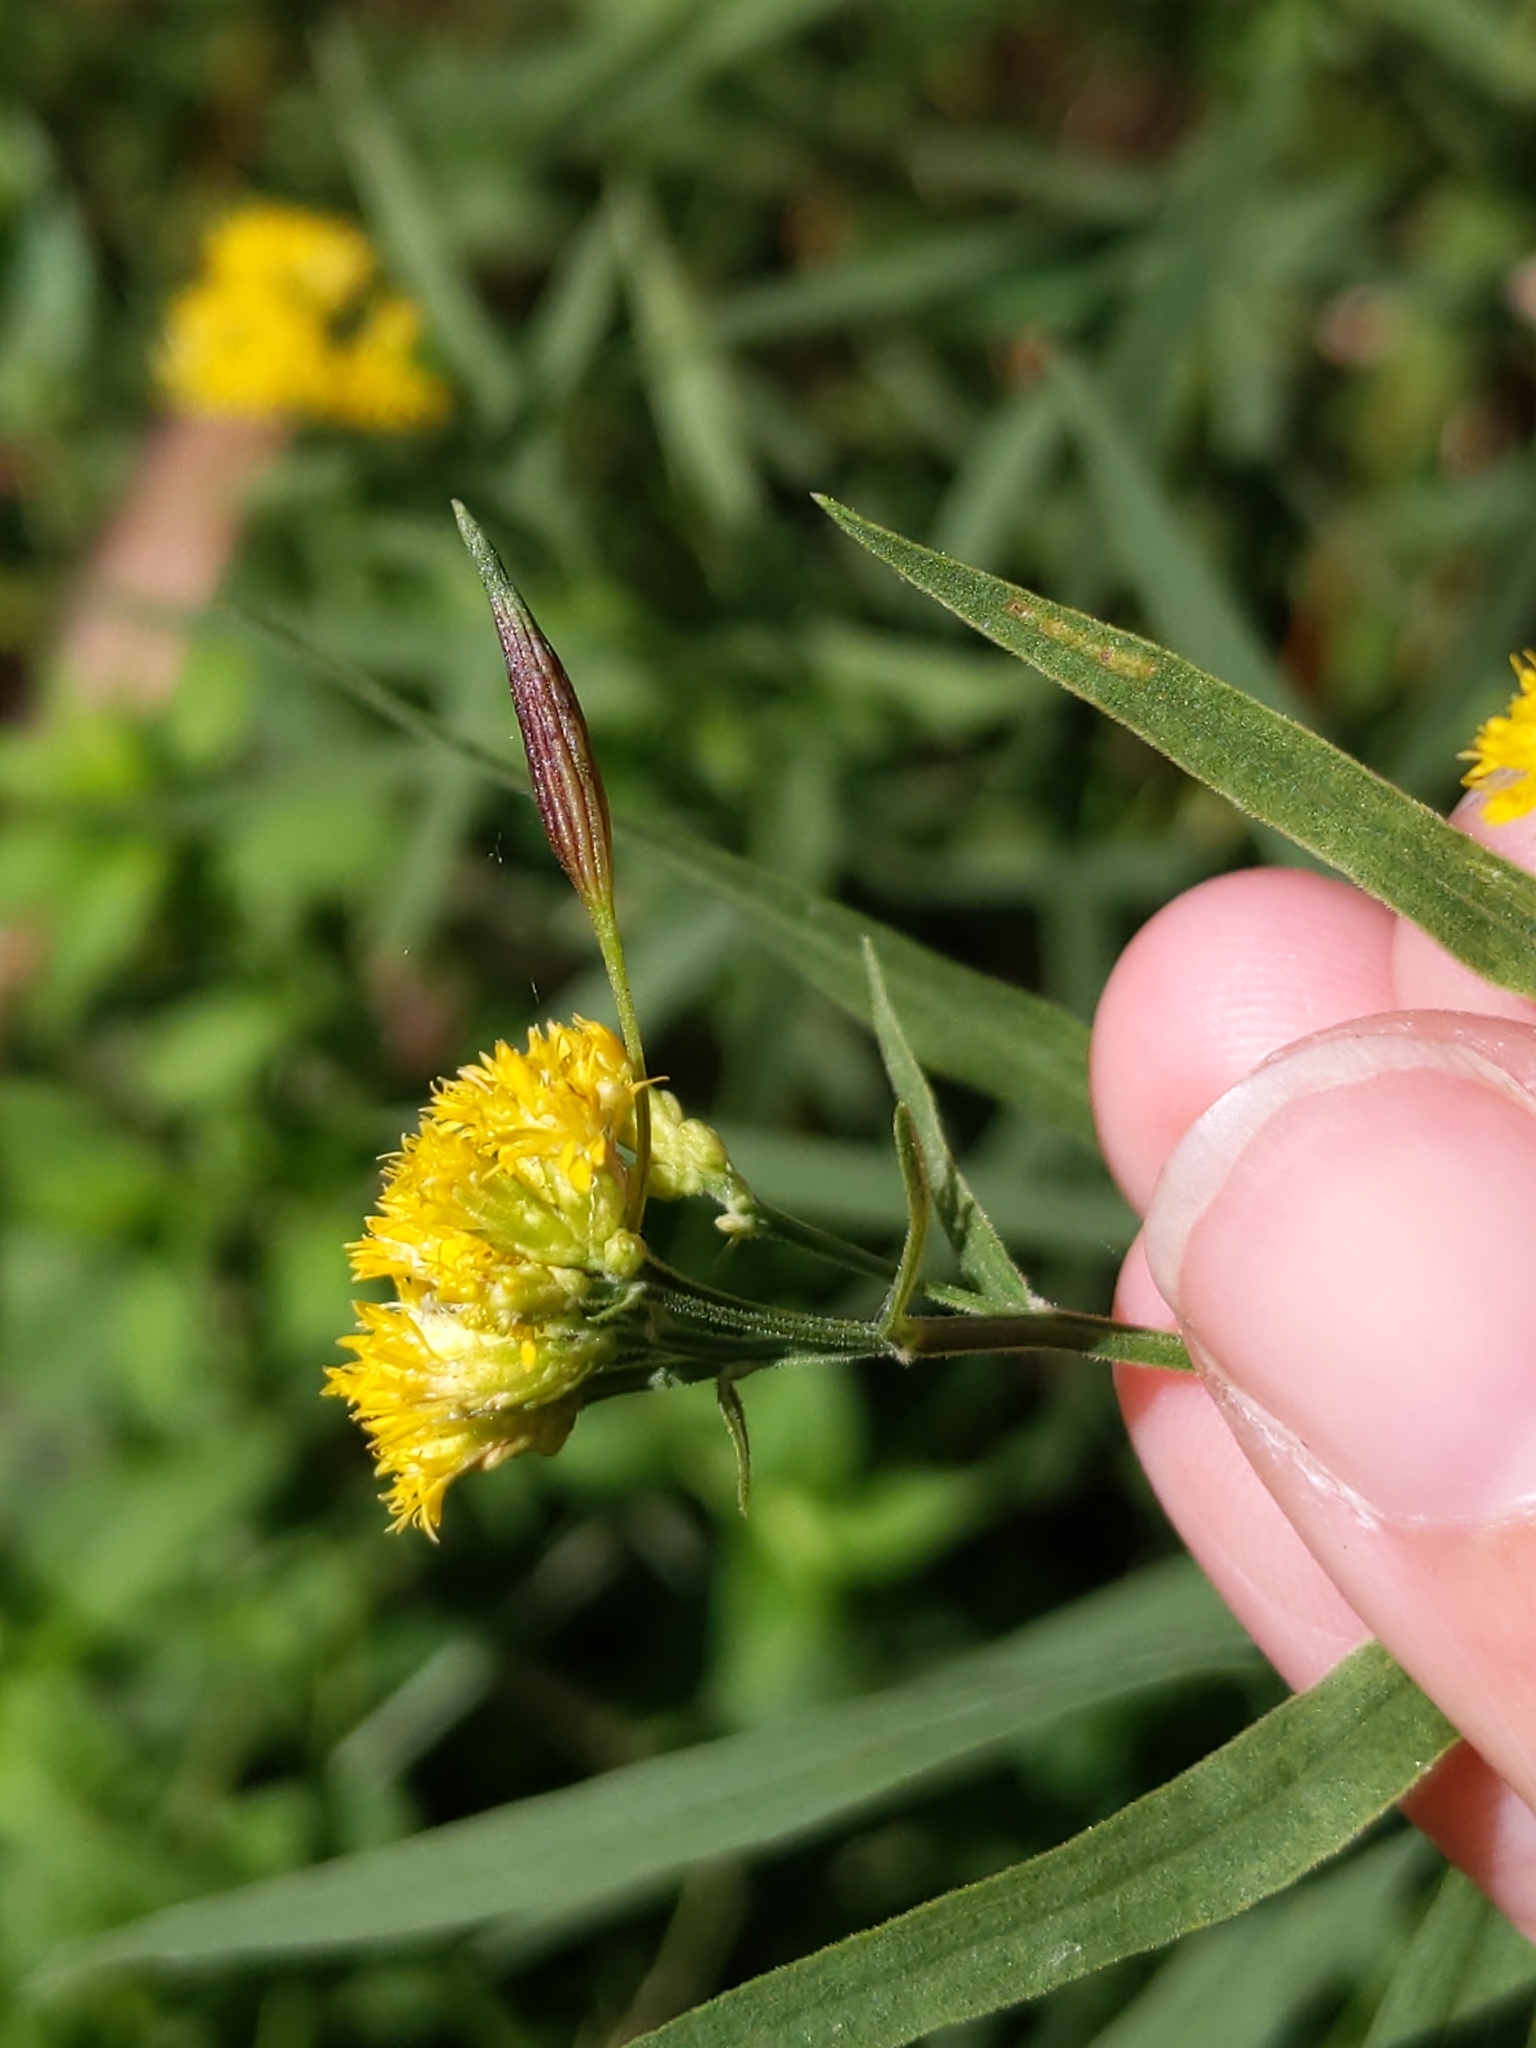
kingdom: Plantae
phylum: Tracheophyta
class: Magnoliopsida
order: Asterales
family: Asteraceae
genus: Euthamia
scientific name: Euthamia graminifolia
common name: Common goldentop
